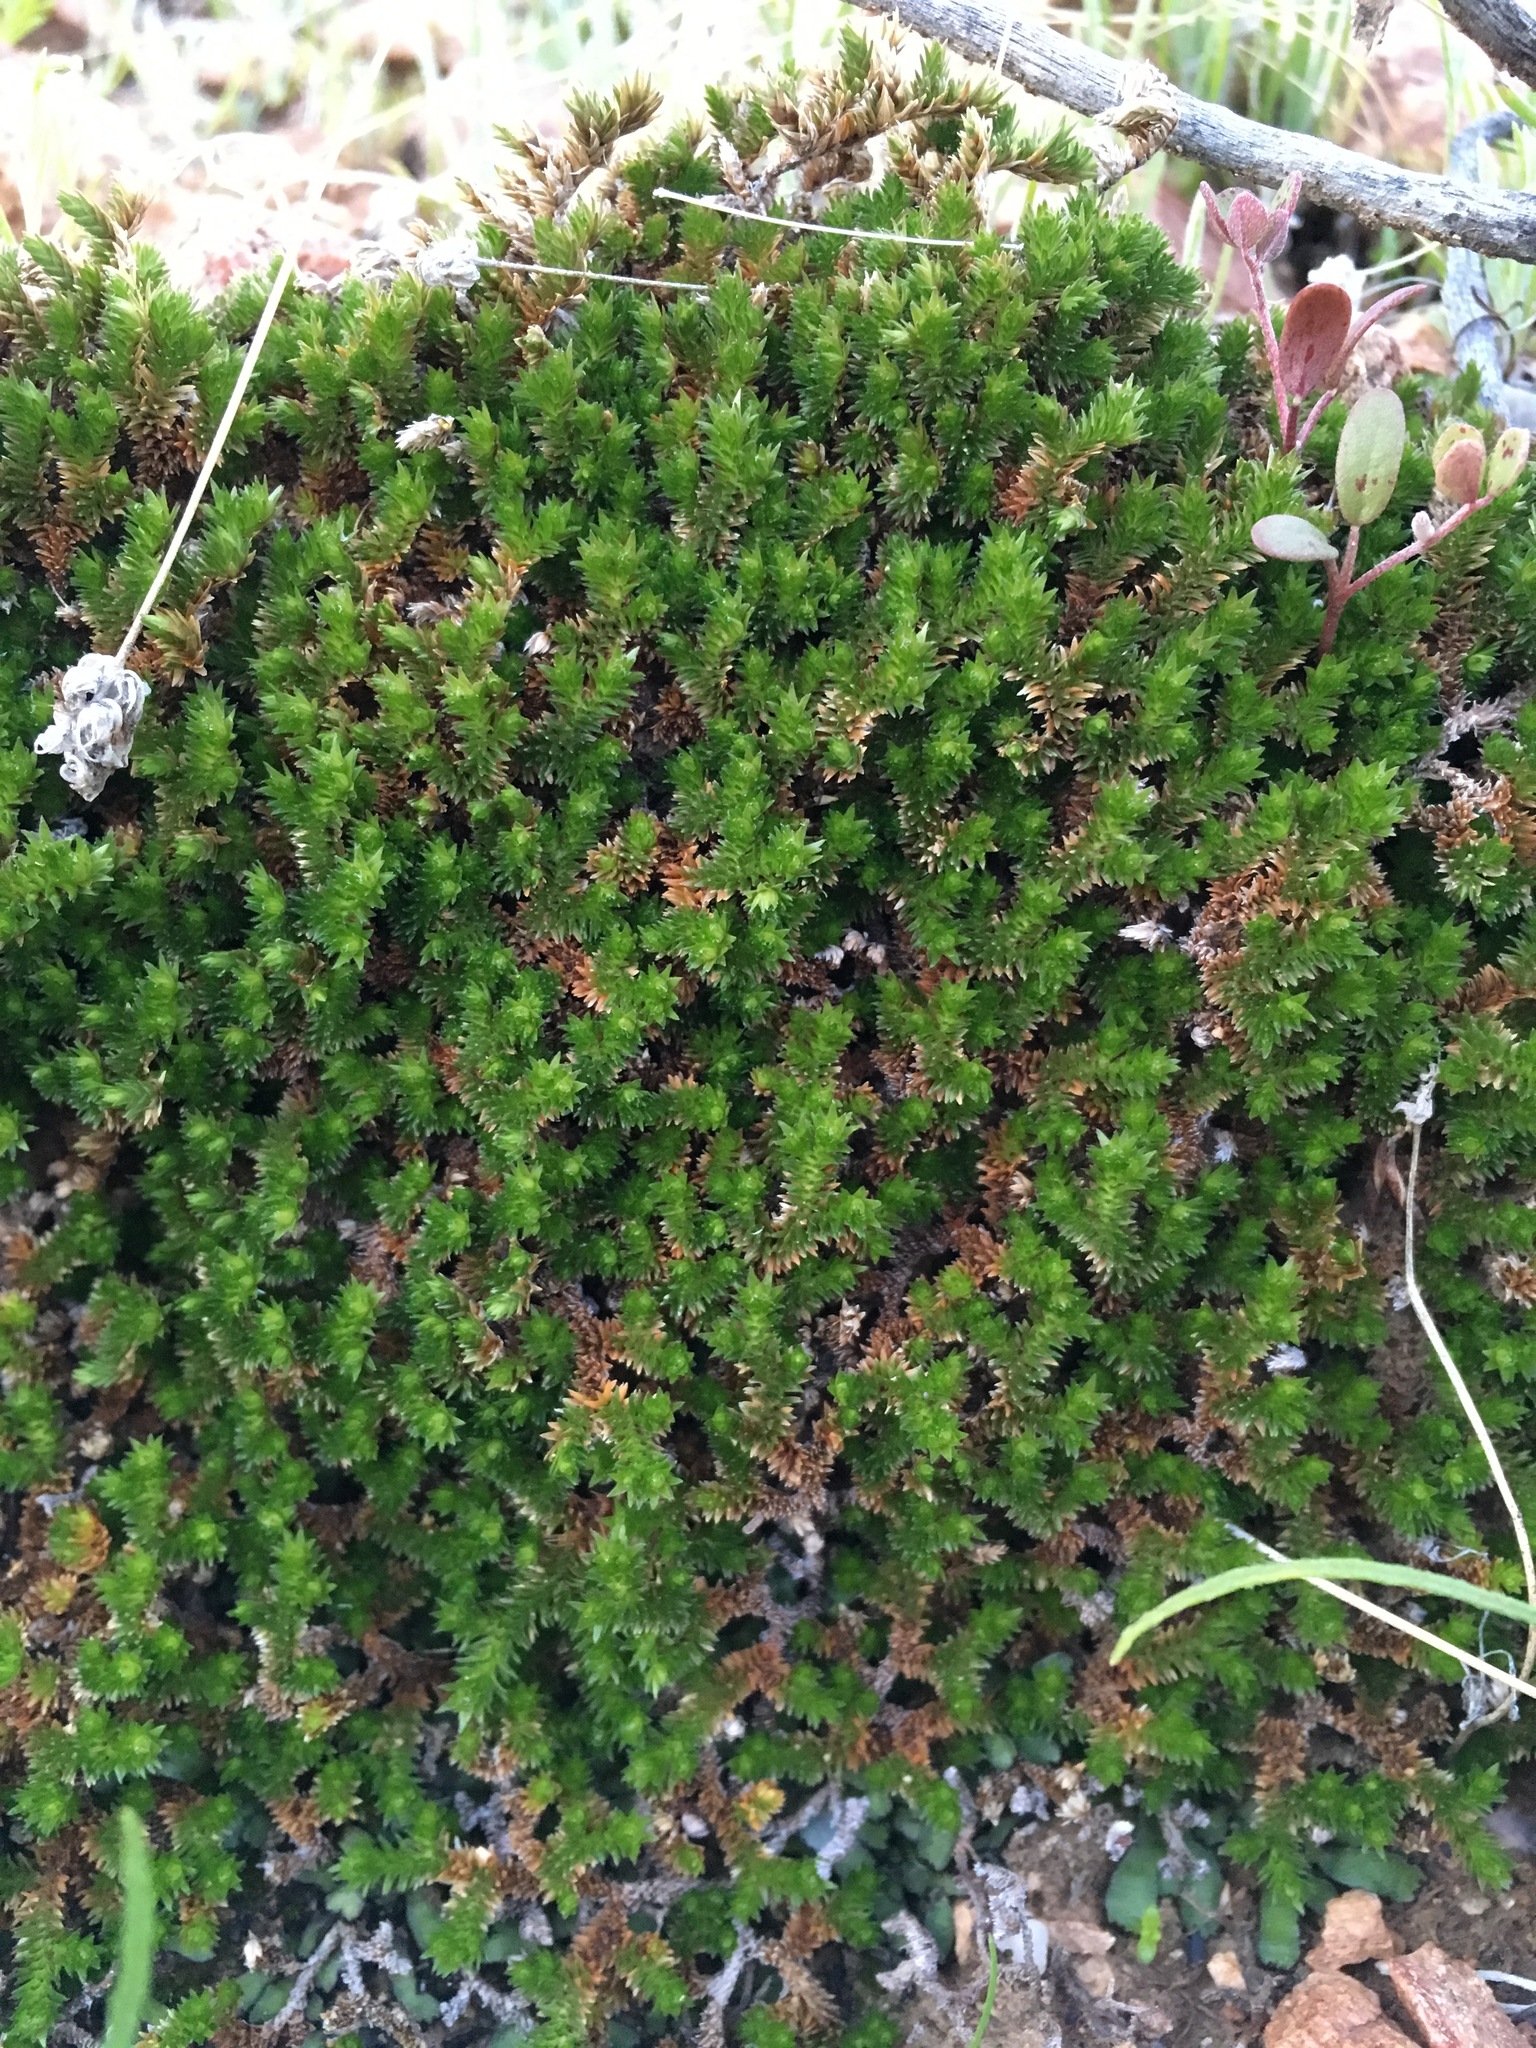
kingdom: Plantae
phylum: Tracheophyta
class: Lycopodiopsida
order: Selaginellales
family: Selaginellaceae
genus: Selaginella
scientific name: Selaginella eremophila
